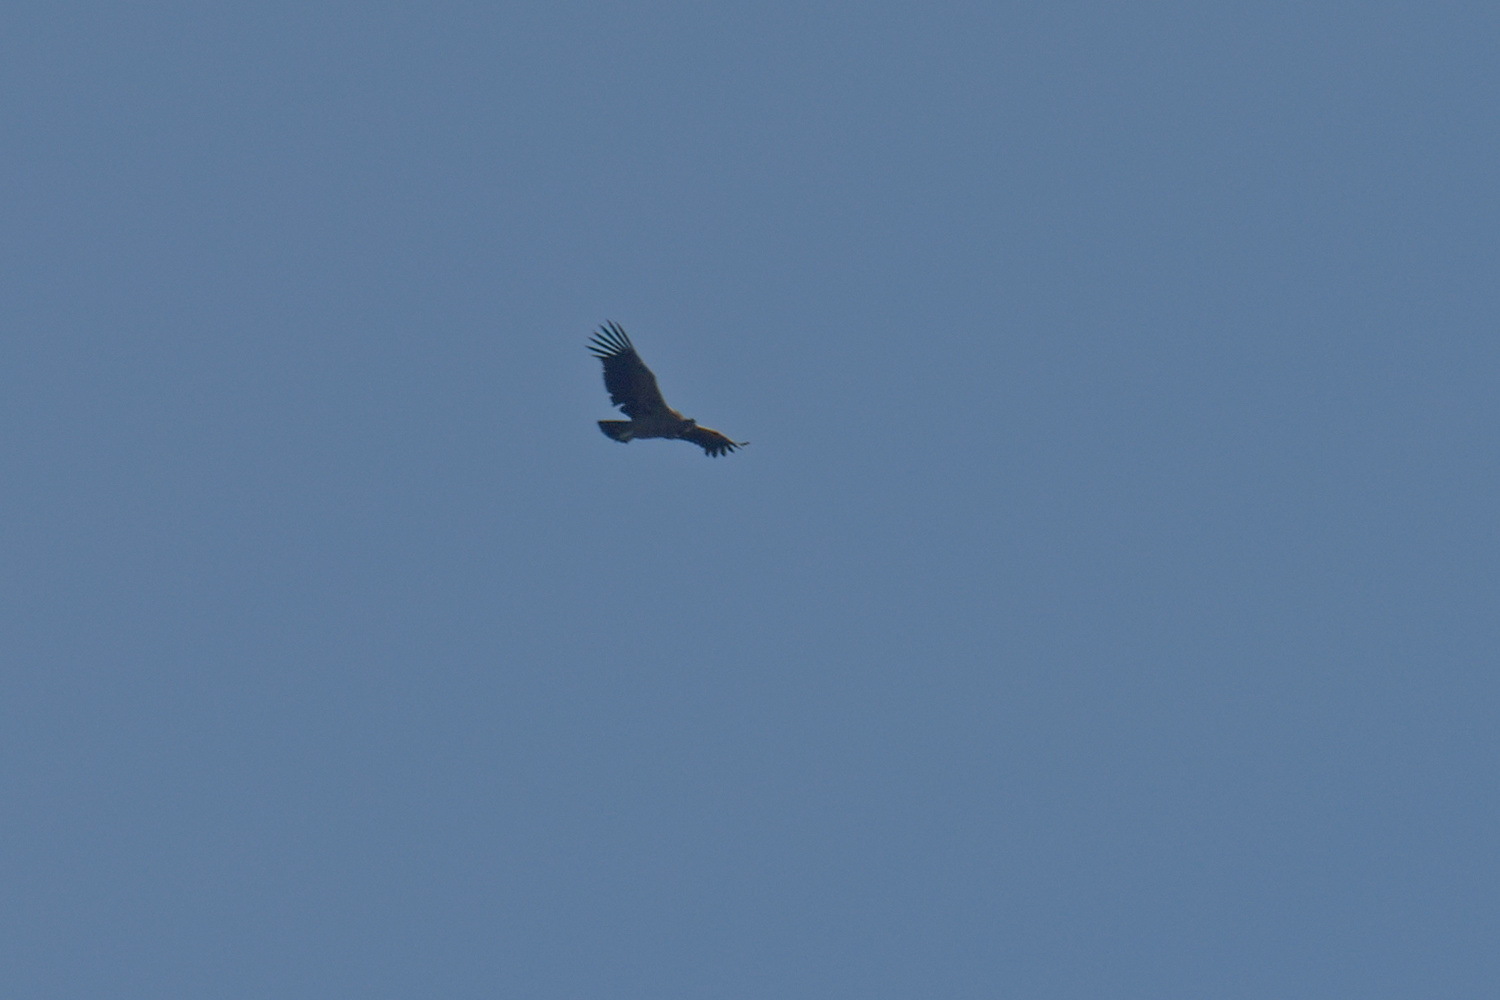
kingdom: Animalia
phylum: Chordata
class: Aves
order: Accipitriformes
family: Cathartidae
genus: Vultur
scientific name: Vultur gryphus
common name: Andean condor
